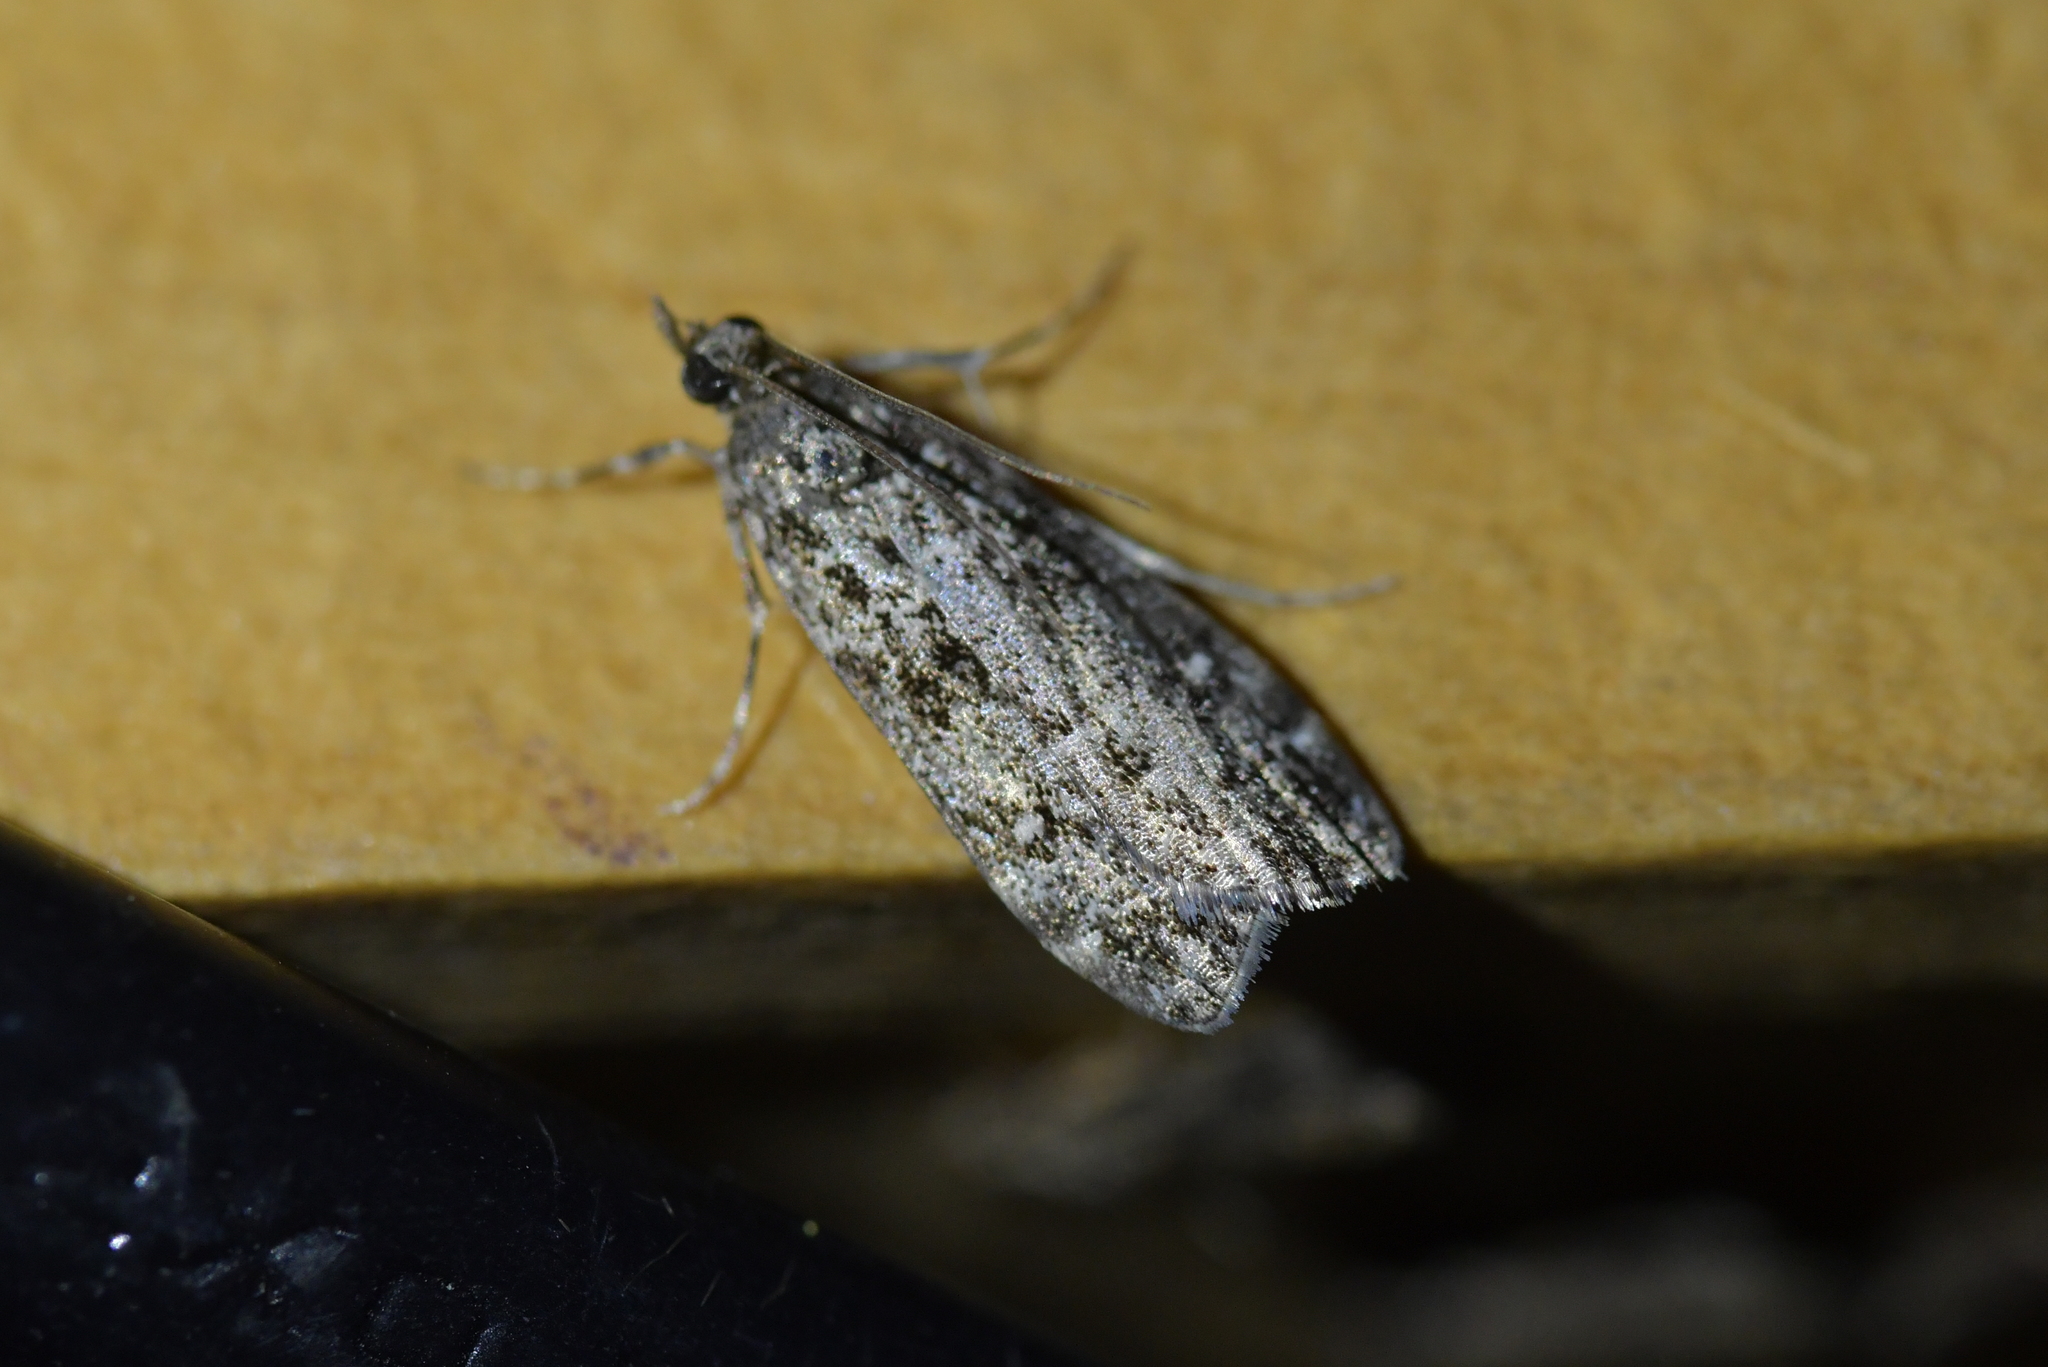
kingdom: Animalia
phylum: Arthropoda
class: Insecta
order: Lepidoptera
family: Crambidae
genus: Eudonia
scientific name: Eudonia philerga
